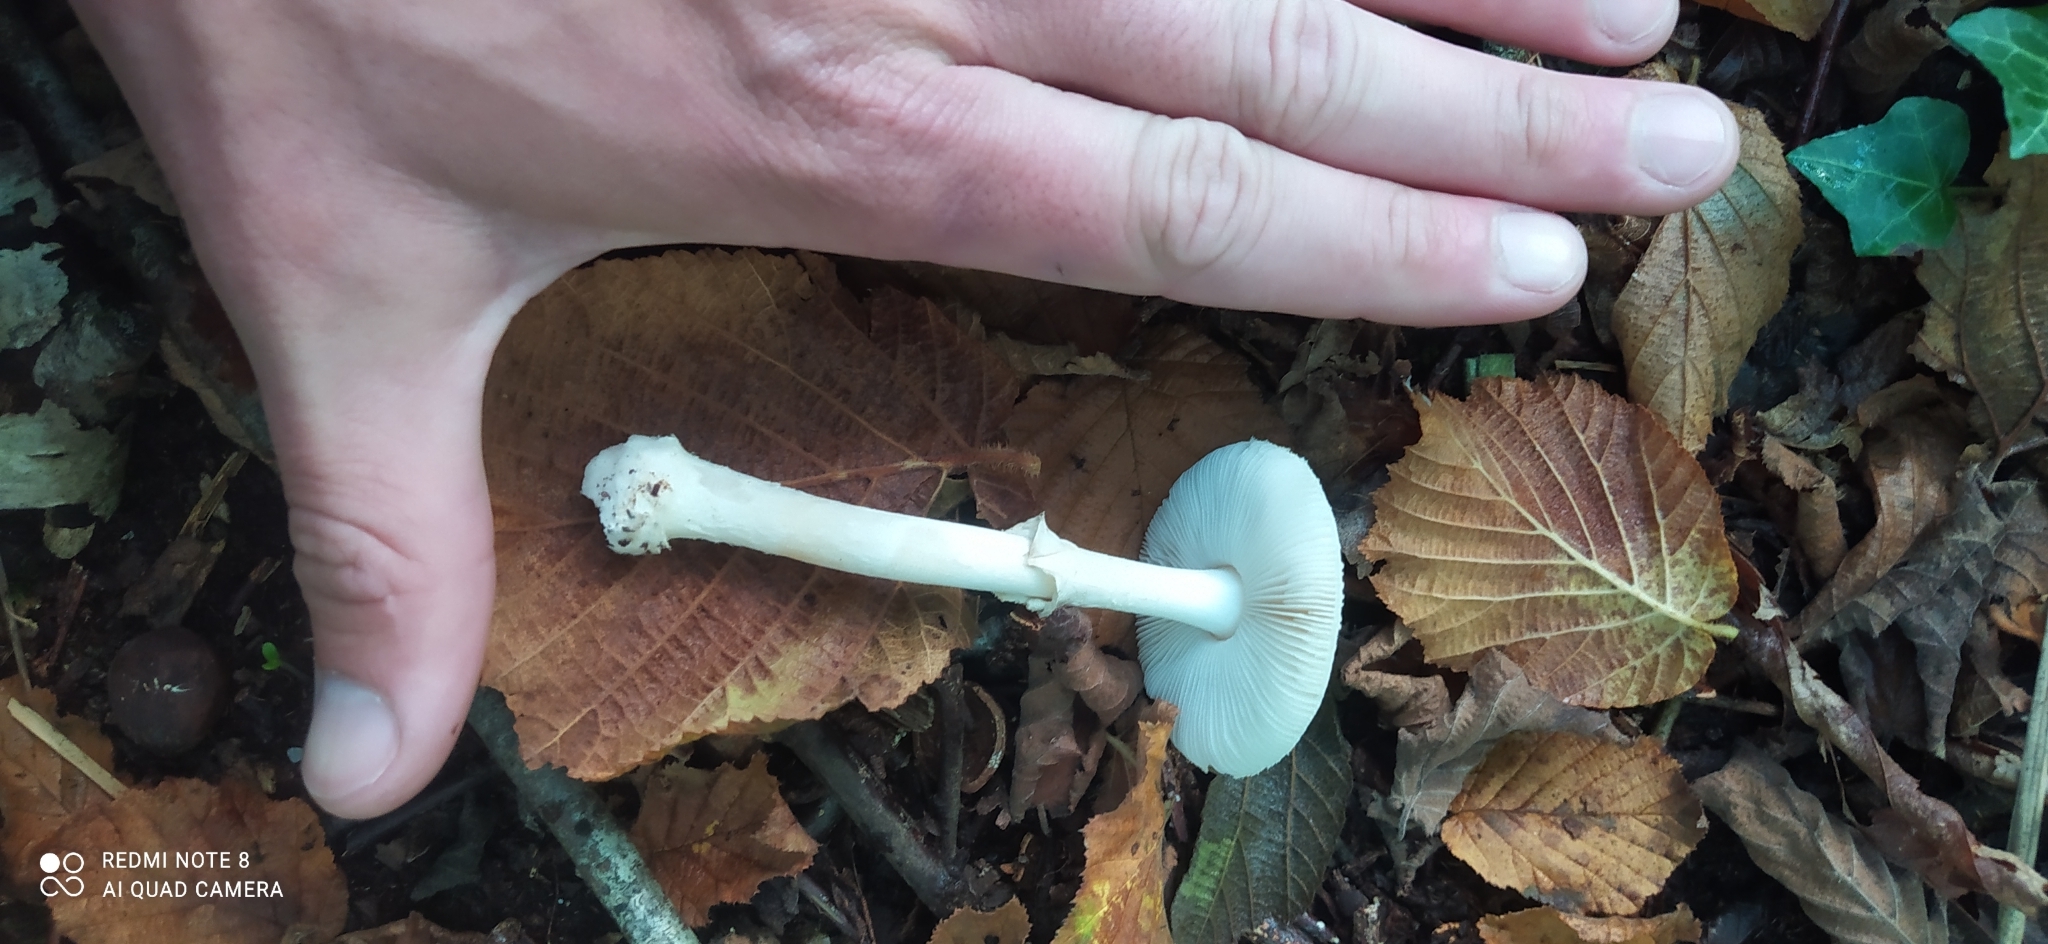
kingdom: Fungi
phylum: Basidiomycota
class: Agaricomycetes
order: Agaricales
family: Amanitaceae
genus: Amanita
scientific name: Amanita citrina
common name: False death-cap
